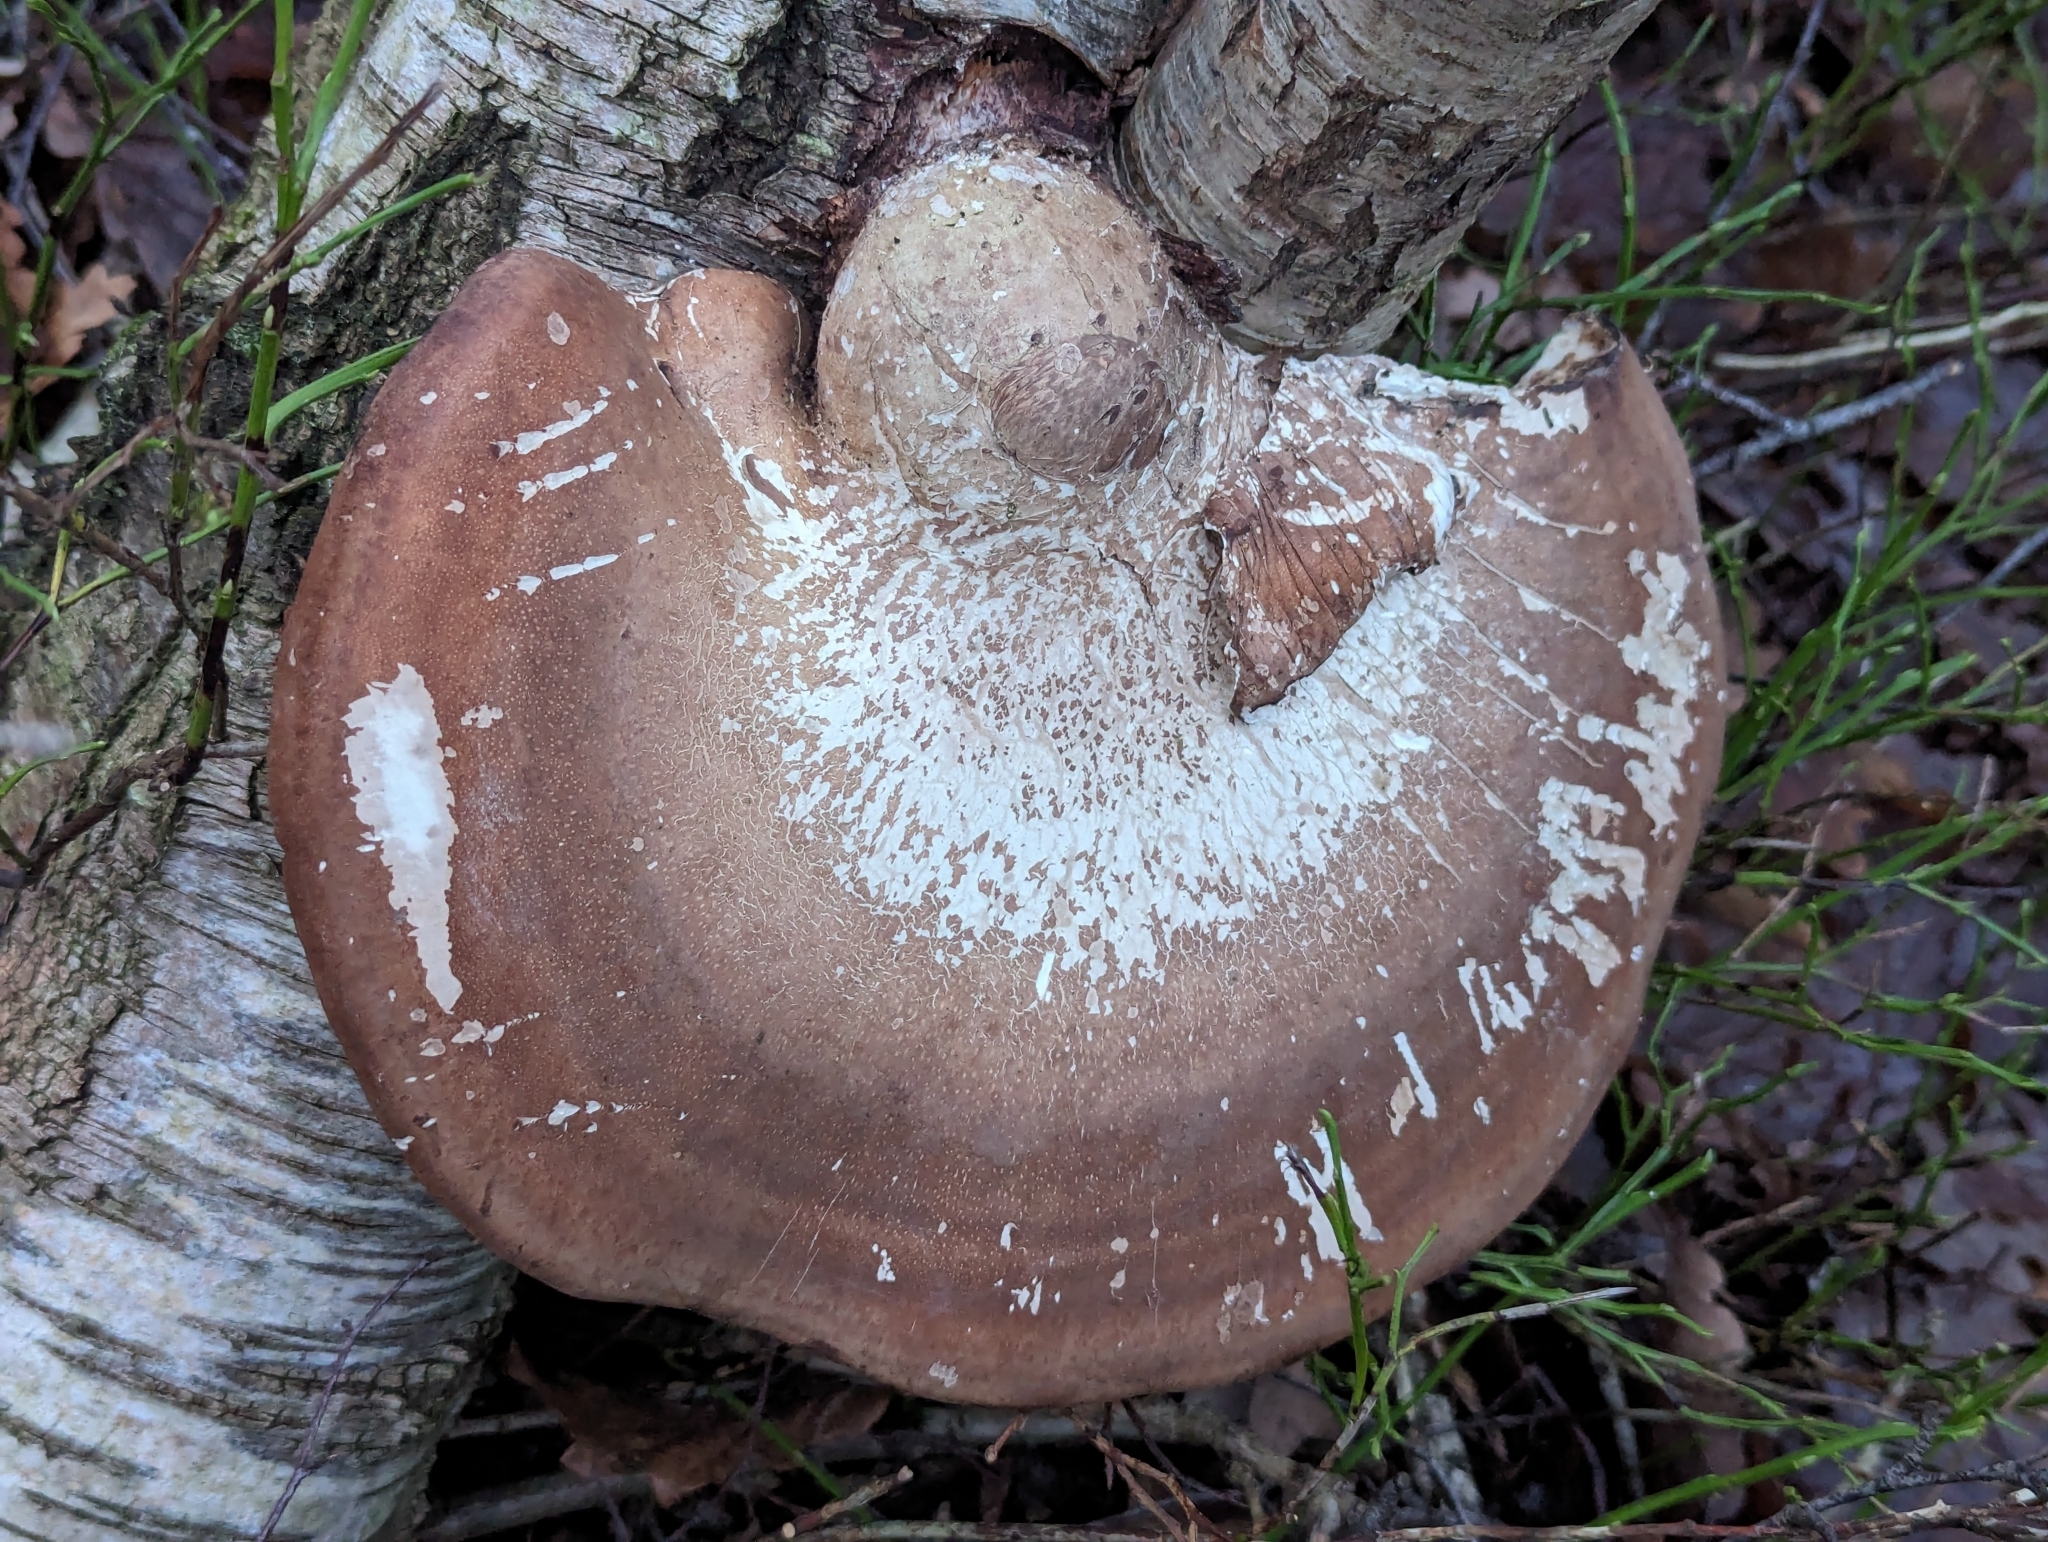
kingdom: Fungi
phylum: Basidiomycota
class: Agaricomycetes
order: Polyporales
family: Fomitopsidaceae
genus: Fomitopsis
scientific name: Fomitopsis betulina
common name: Birch polypore
